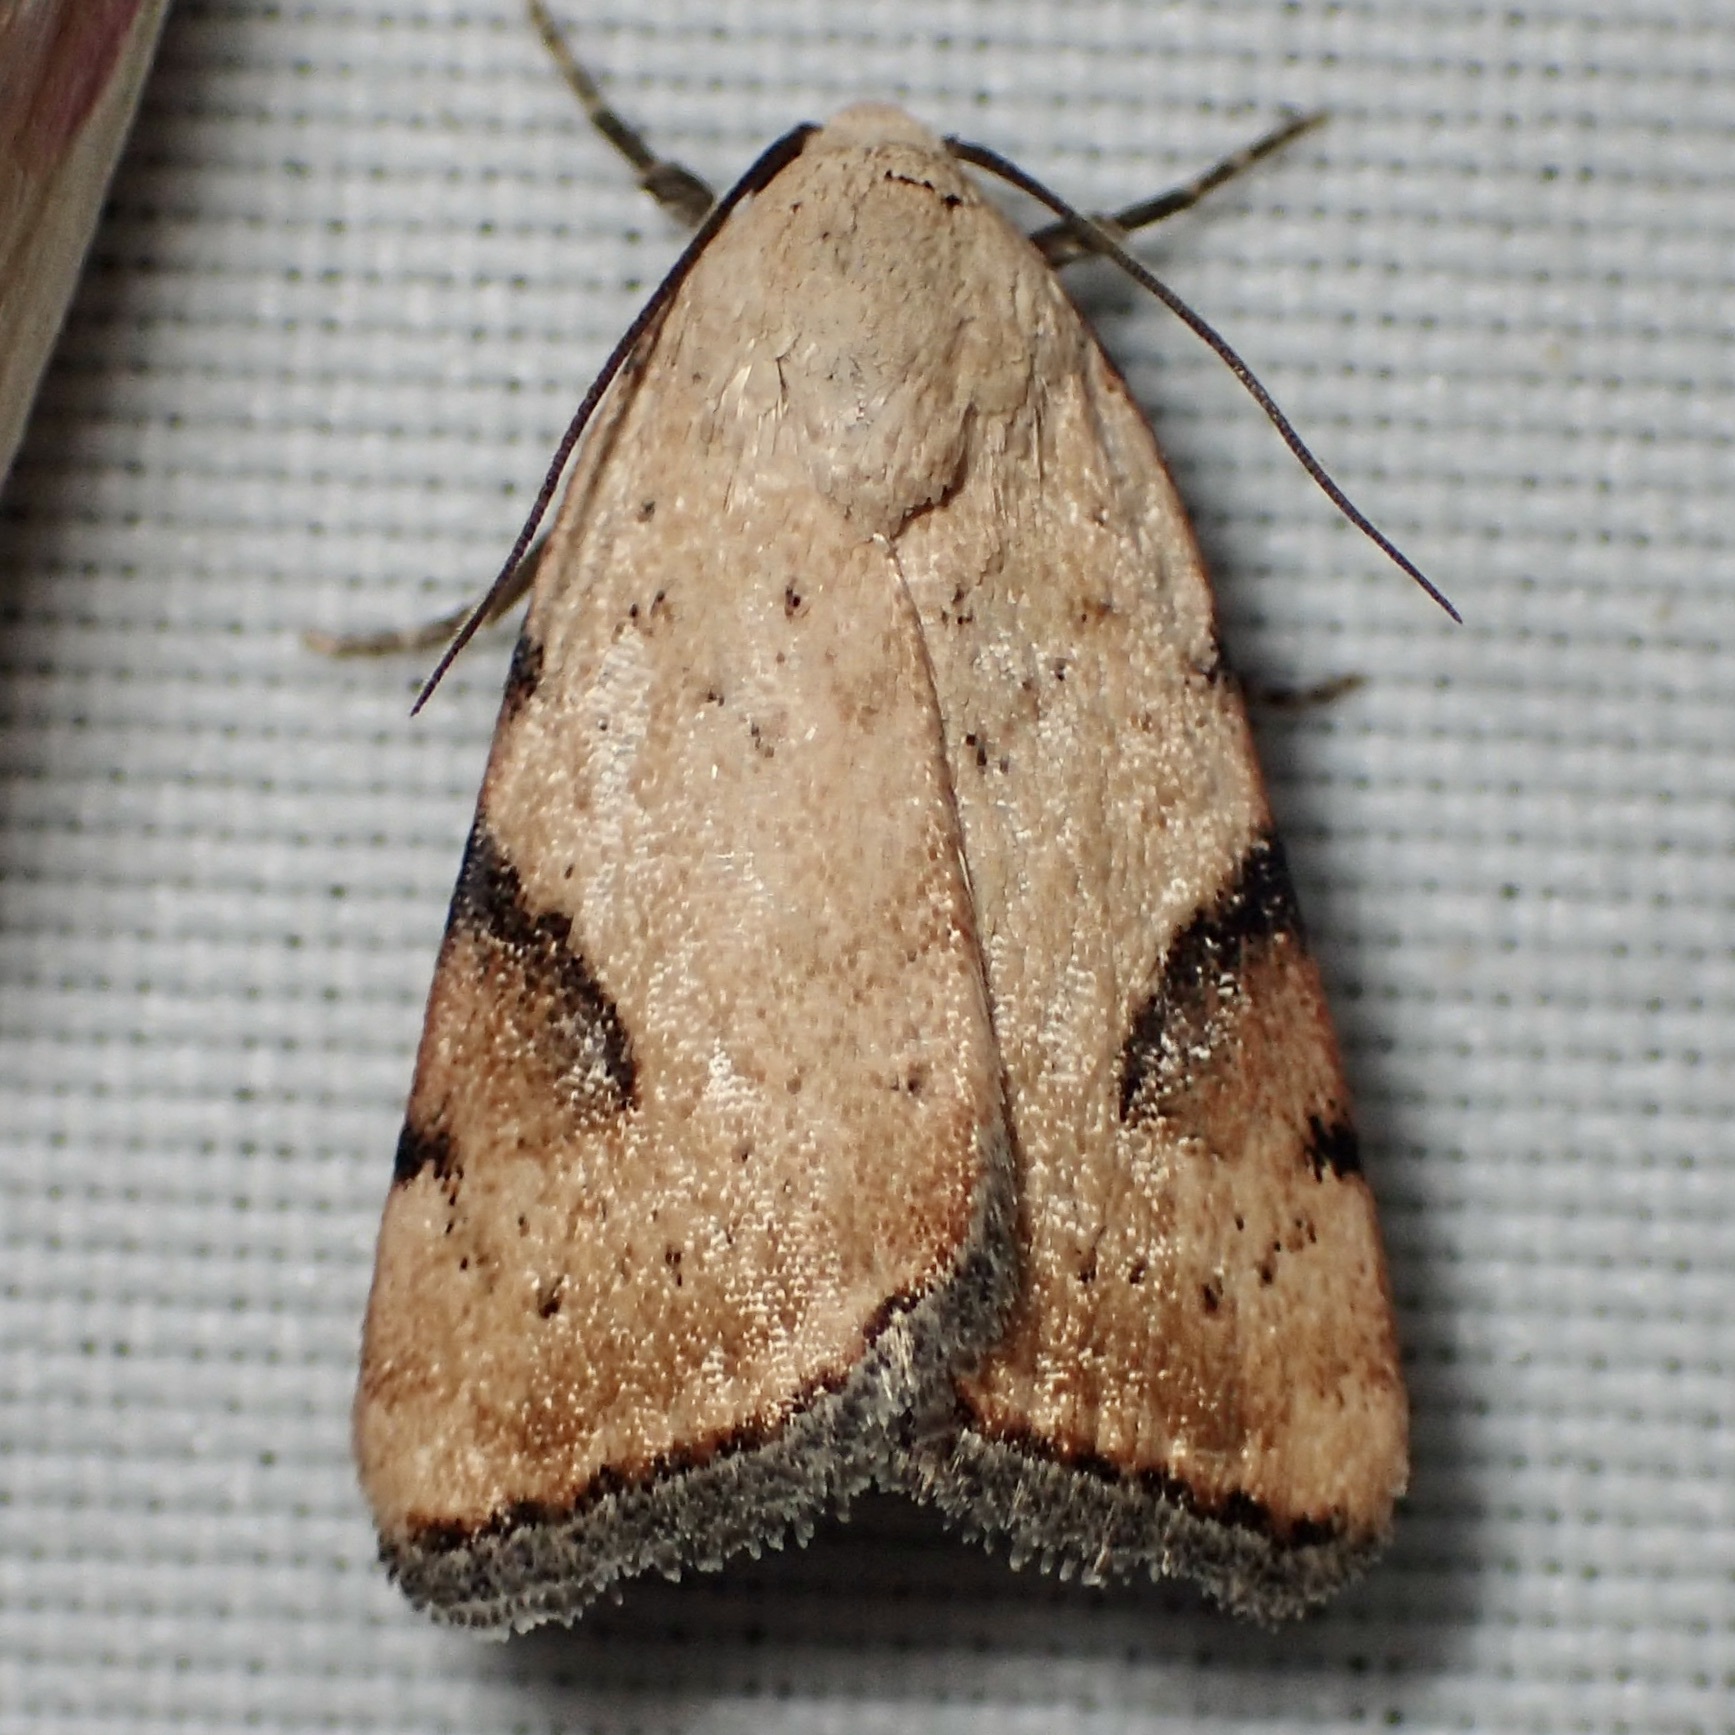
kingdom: Animalia
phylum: Arthropoda
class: Insecta
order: Lepidoptera
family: Noctuidae
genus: Micrathetis
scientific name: Micrathetis costiplaga
